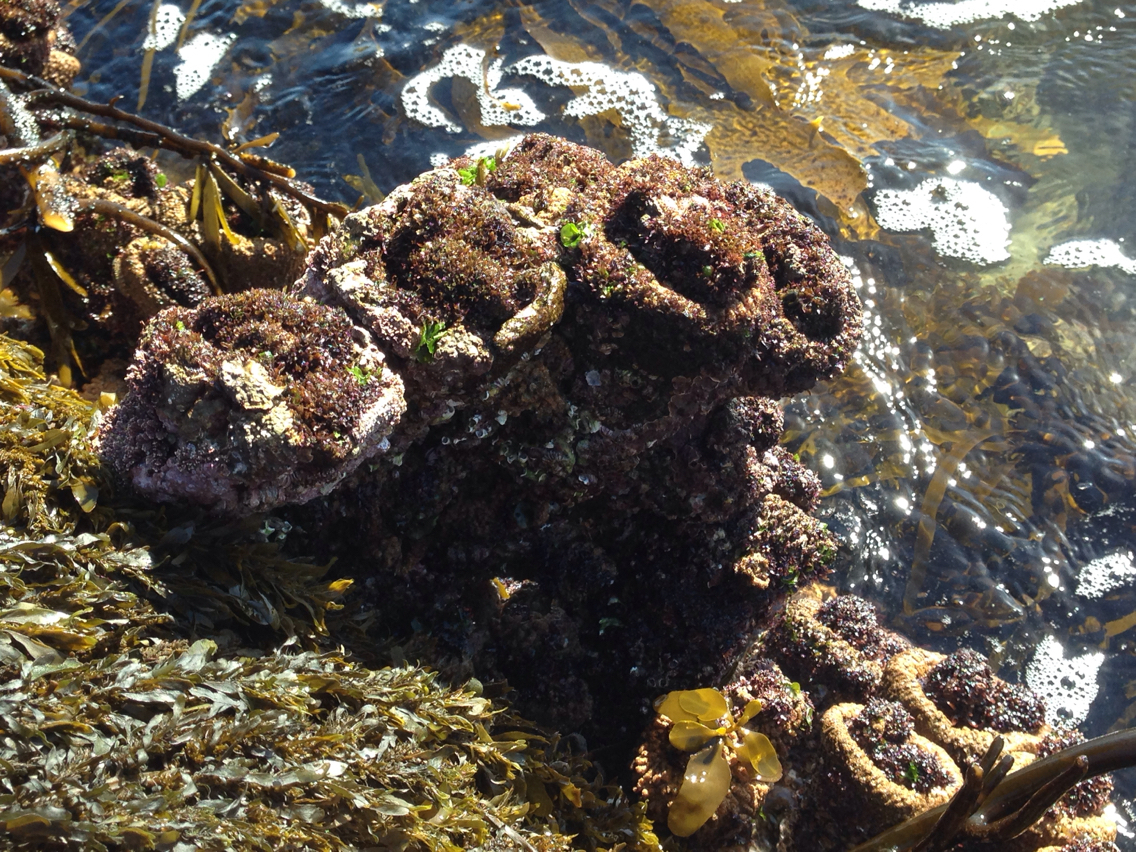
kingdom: Animalia
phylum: Chordata
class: Ascidiacea
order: Stolidobranchia
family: Pyuridae
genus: Pyura
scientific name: Pyura praeputialis
